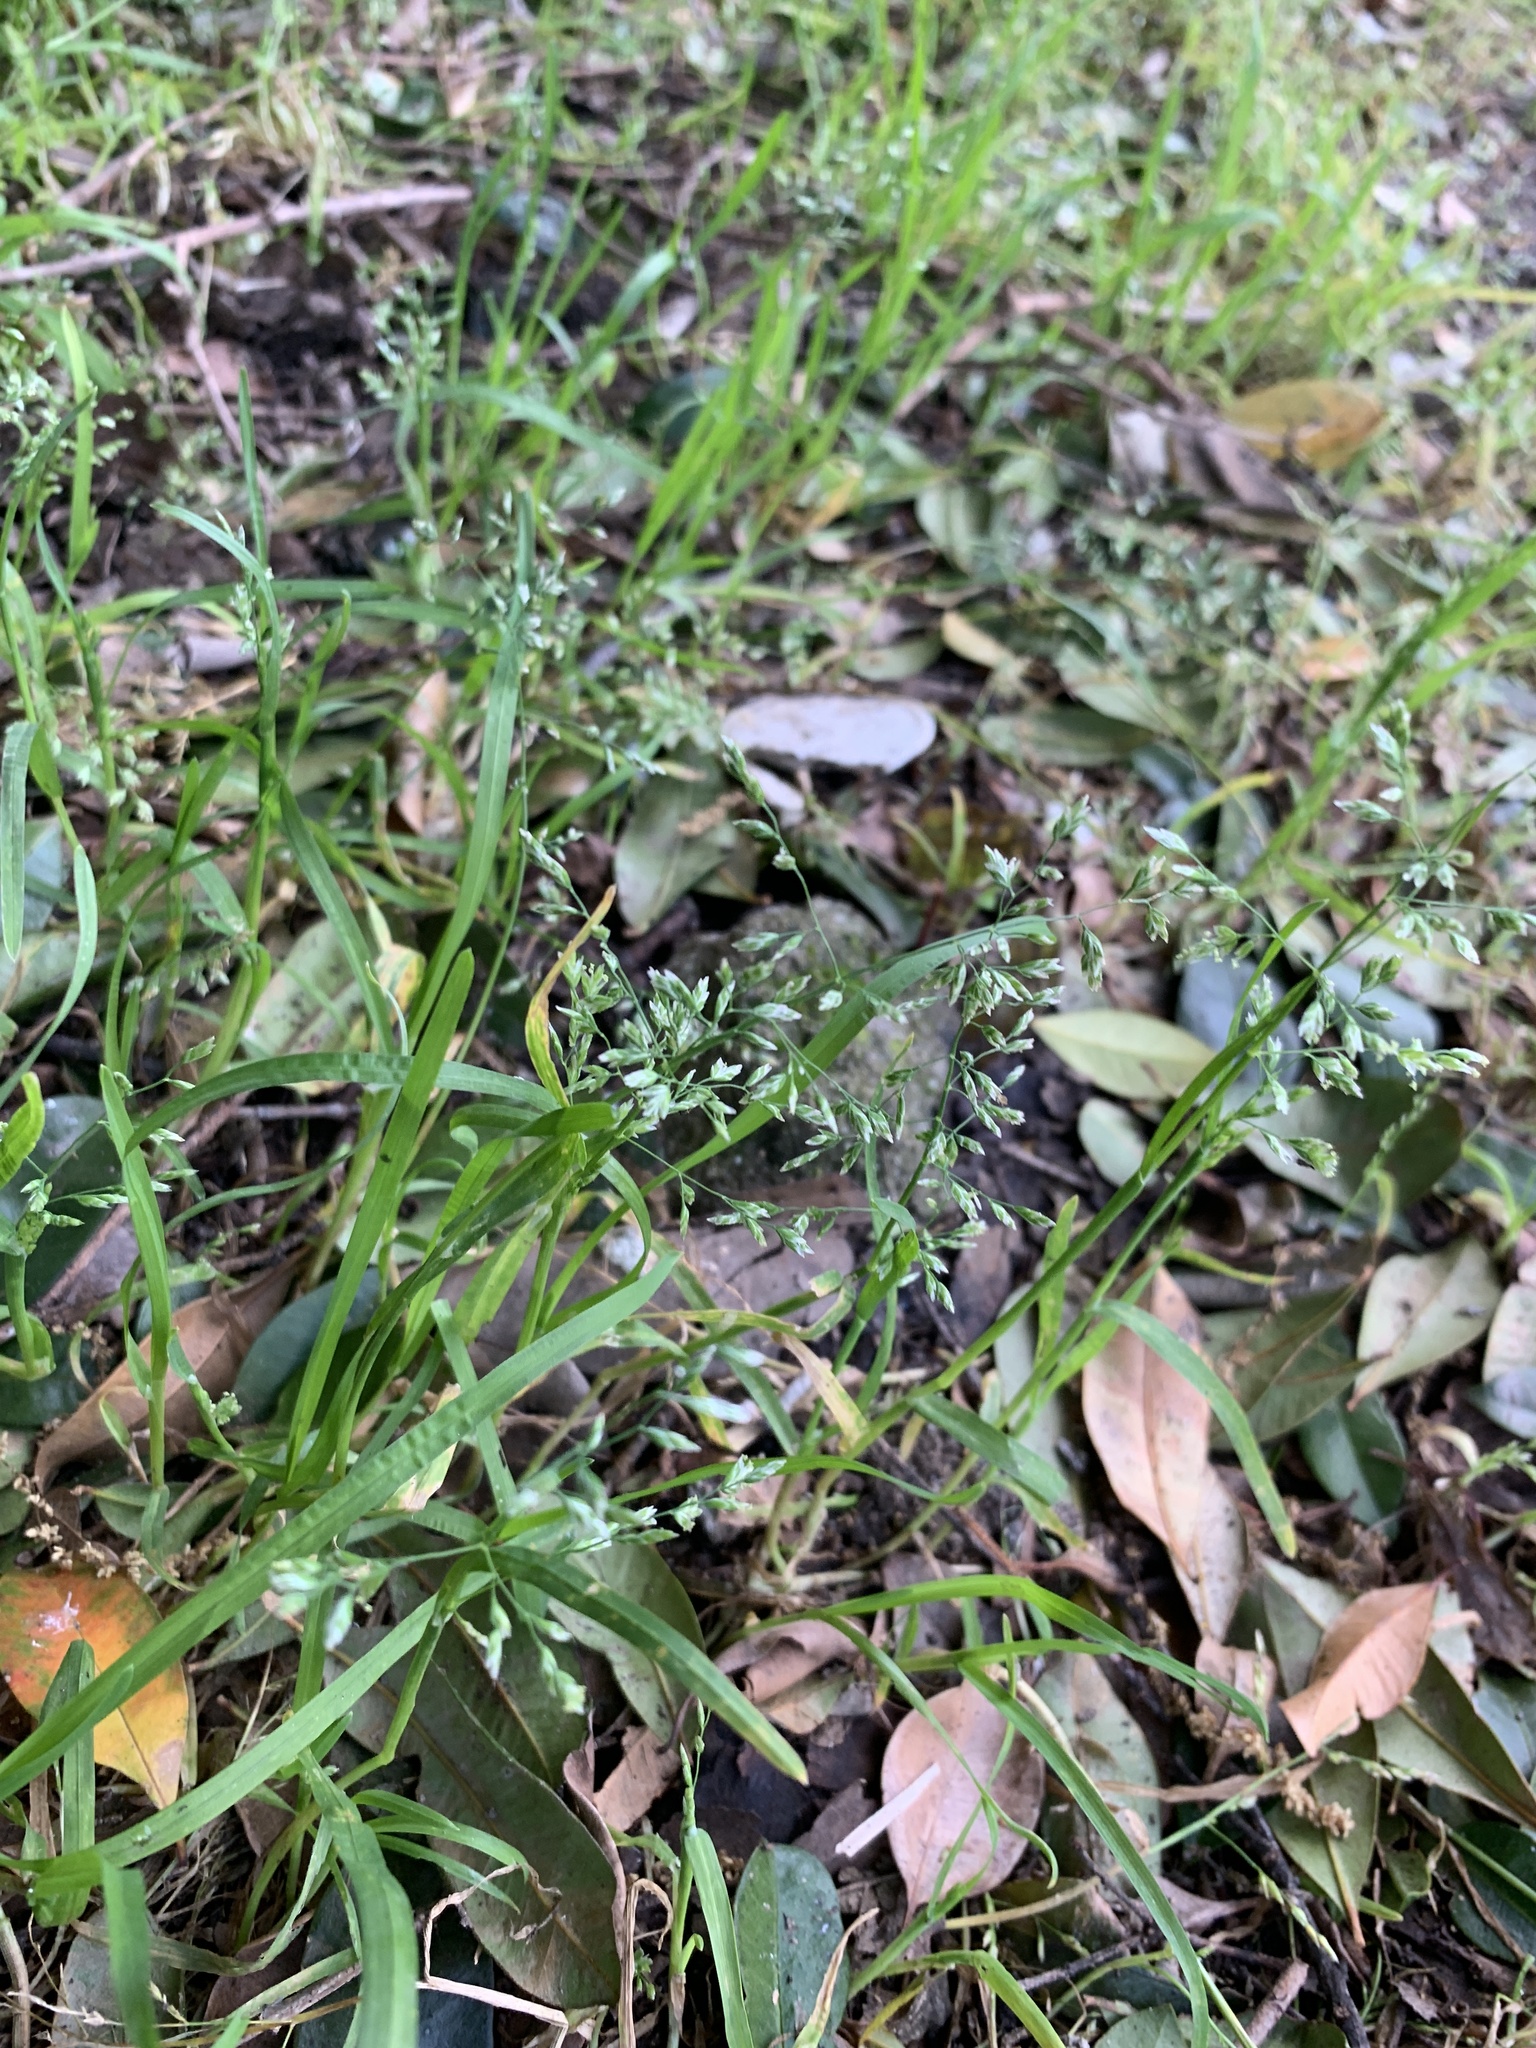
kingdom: Plantae
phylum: Tracheophyta
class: Liliopsida
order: Poales
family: Poaceae
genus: Poa
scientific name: Poa annua
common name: Annual bluegrass
